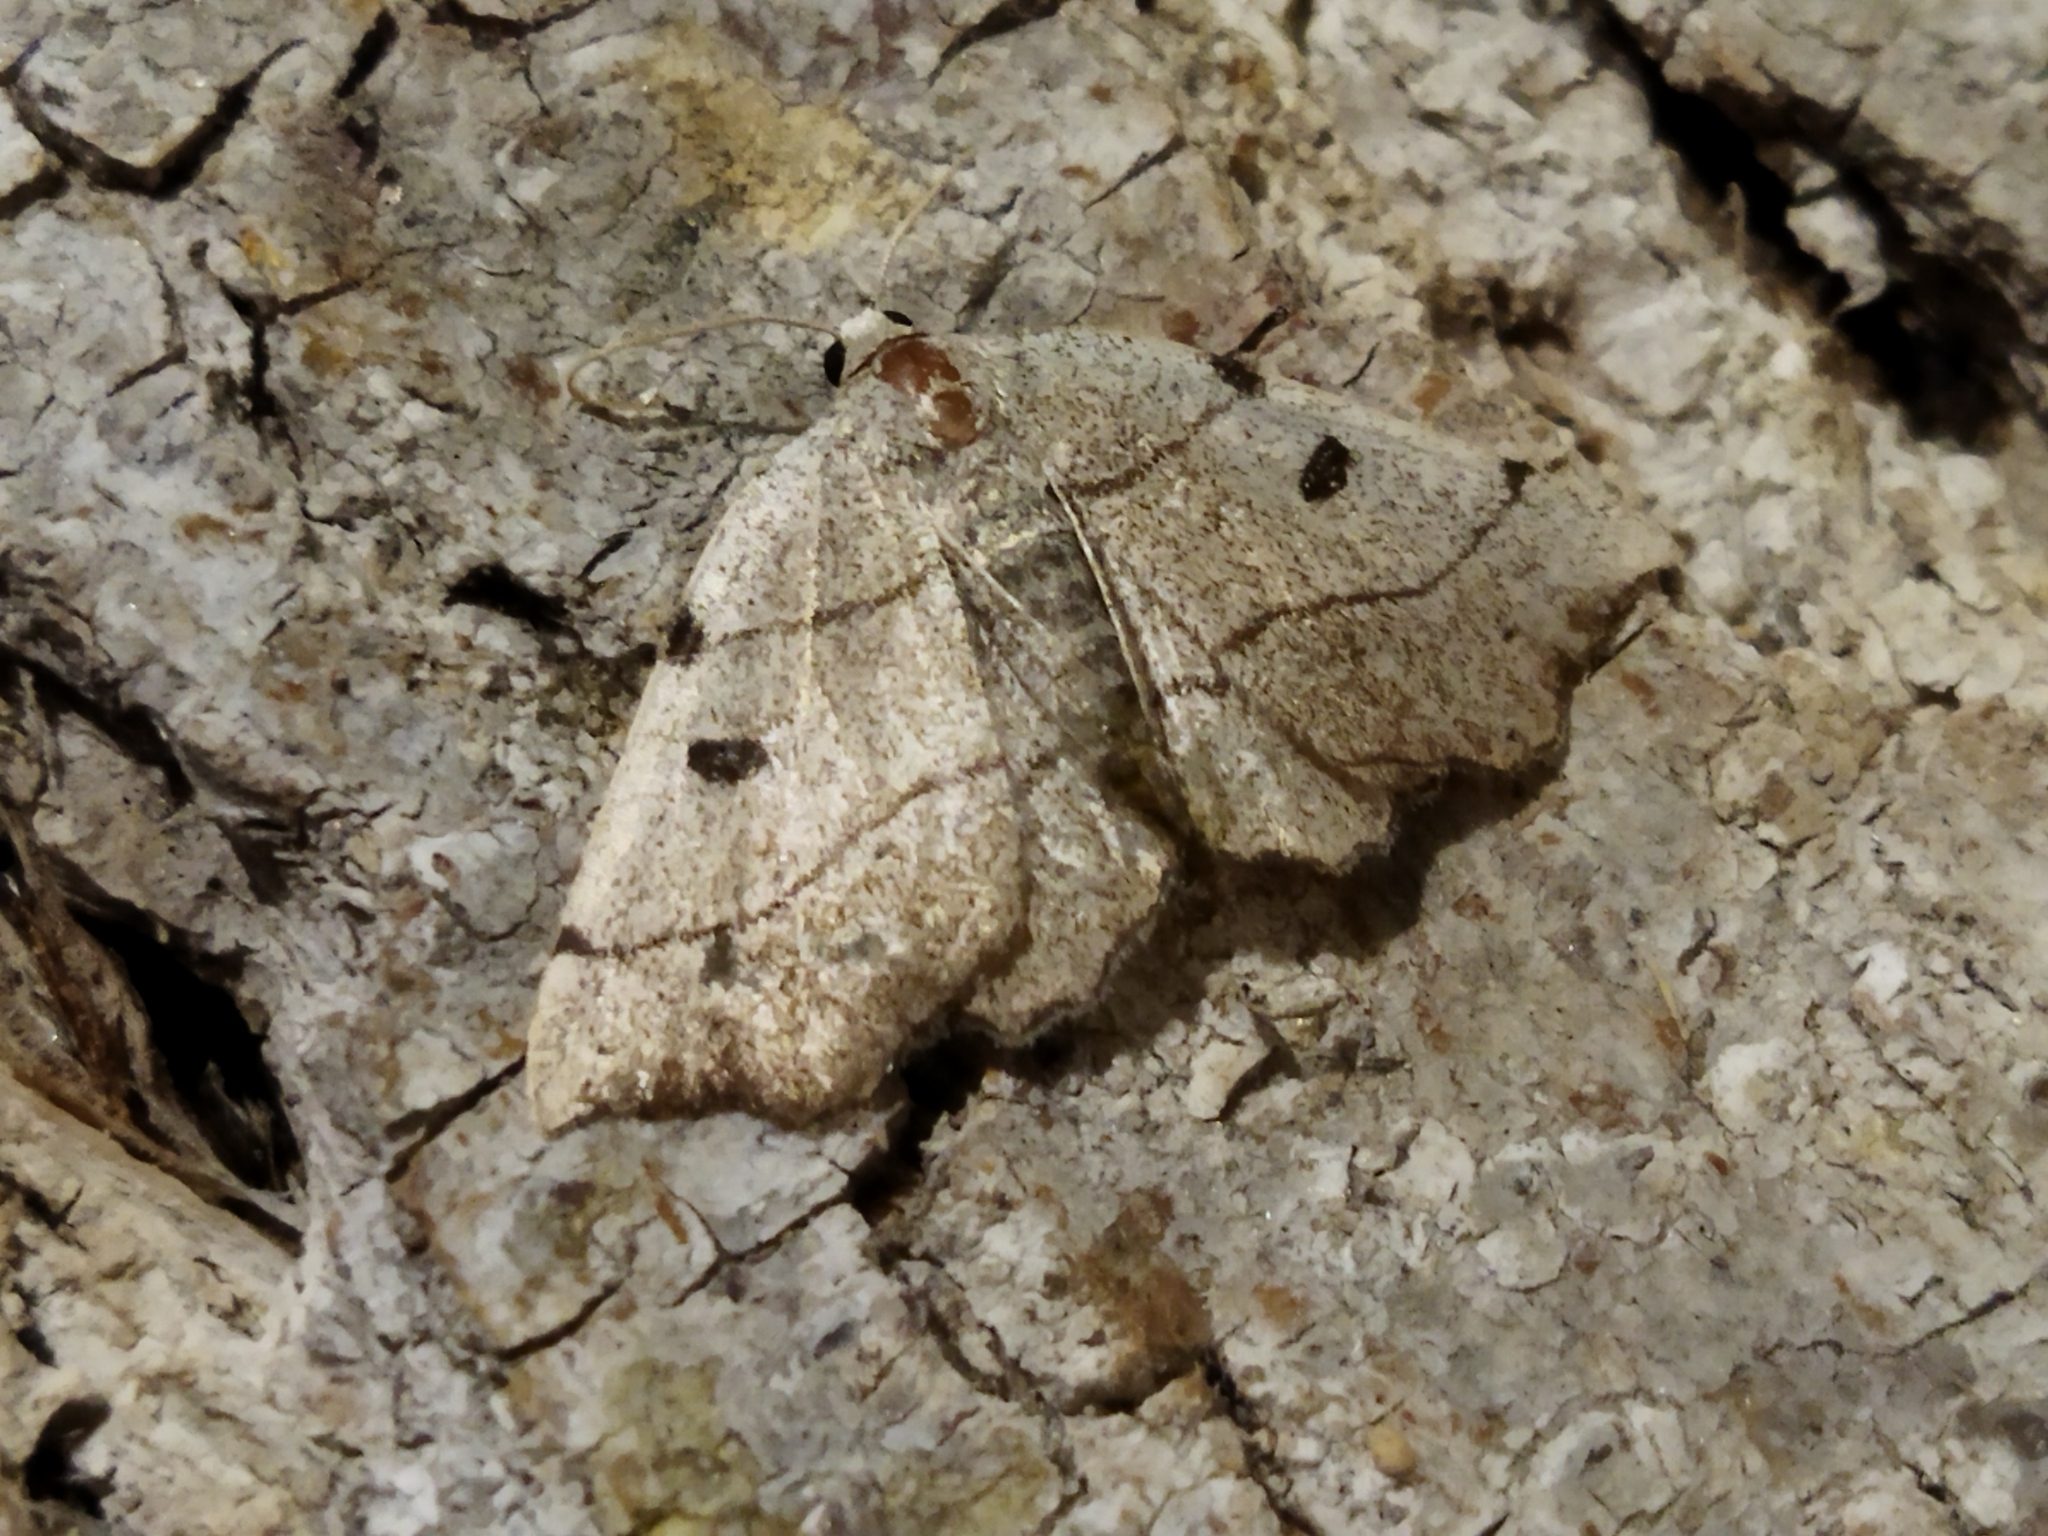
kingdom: Animalia
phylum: Arthropoda
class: Insecta
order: Lepidoptera
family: Geometridae
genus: Eilicrinia
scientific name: Eilicrinia trinotata
